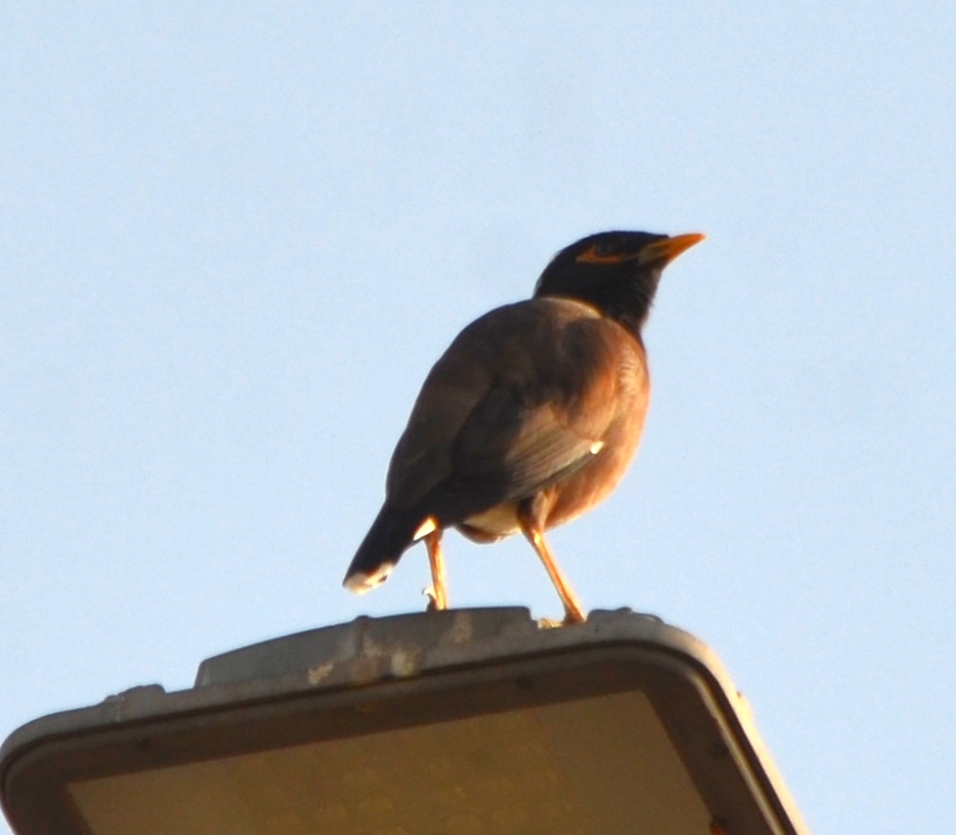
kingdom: Animalia
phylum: Chordata
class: Aves
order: Passeriformes
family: Sturnidae
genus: Acridotheres
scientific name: Acridotheres tristis
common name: Common myna
